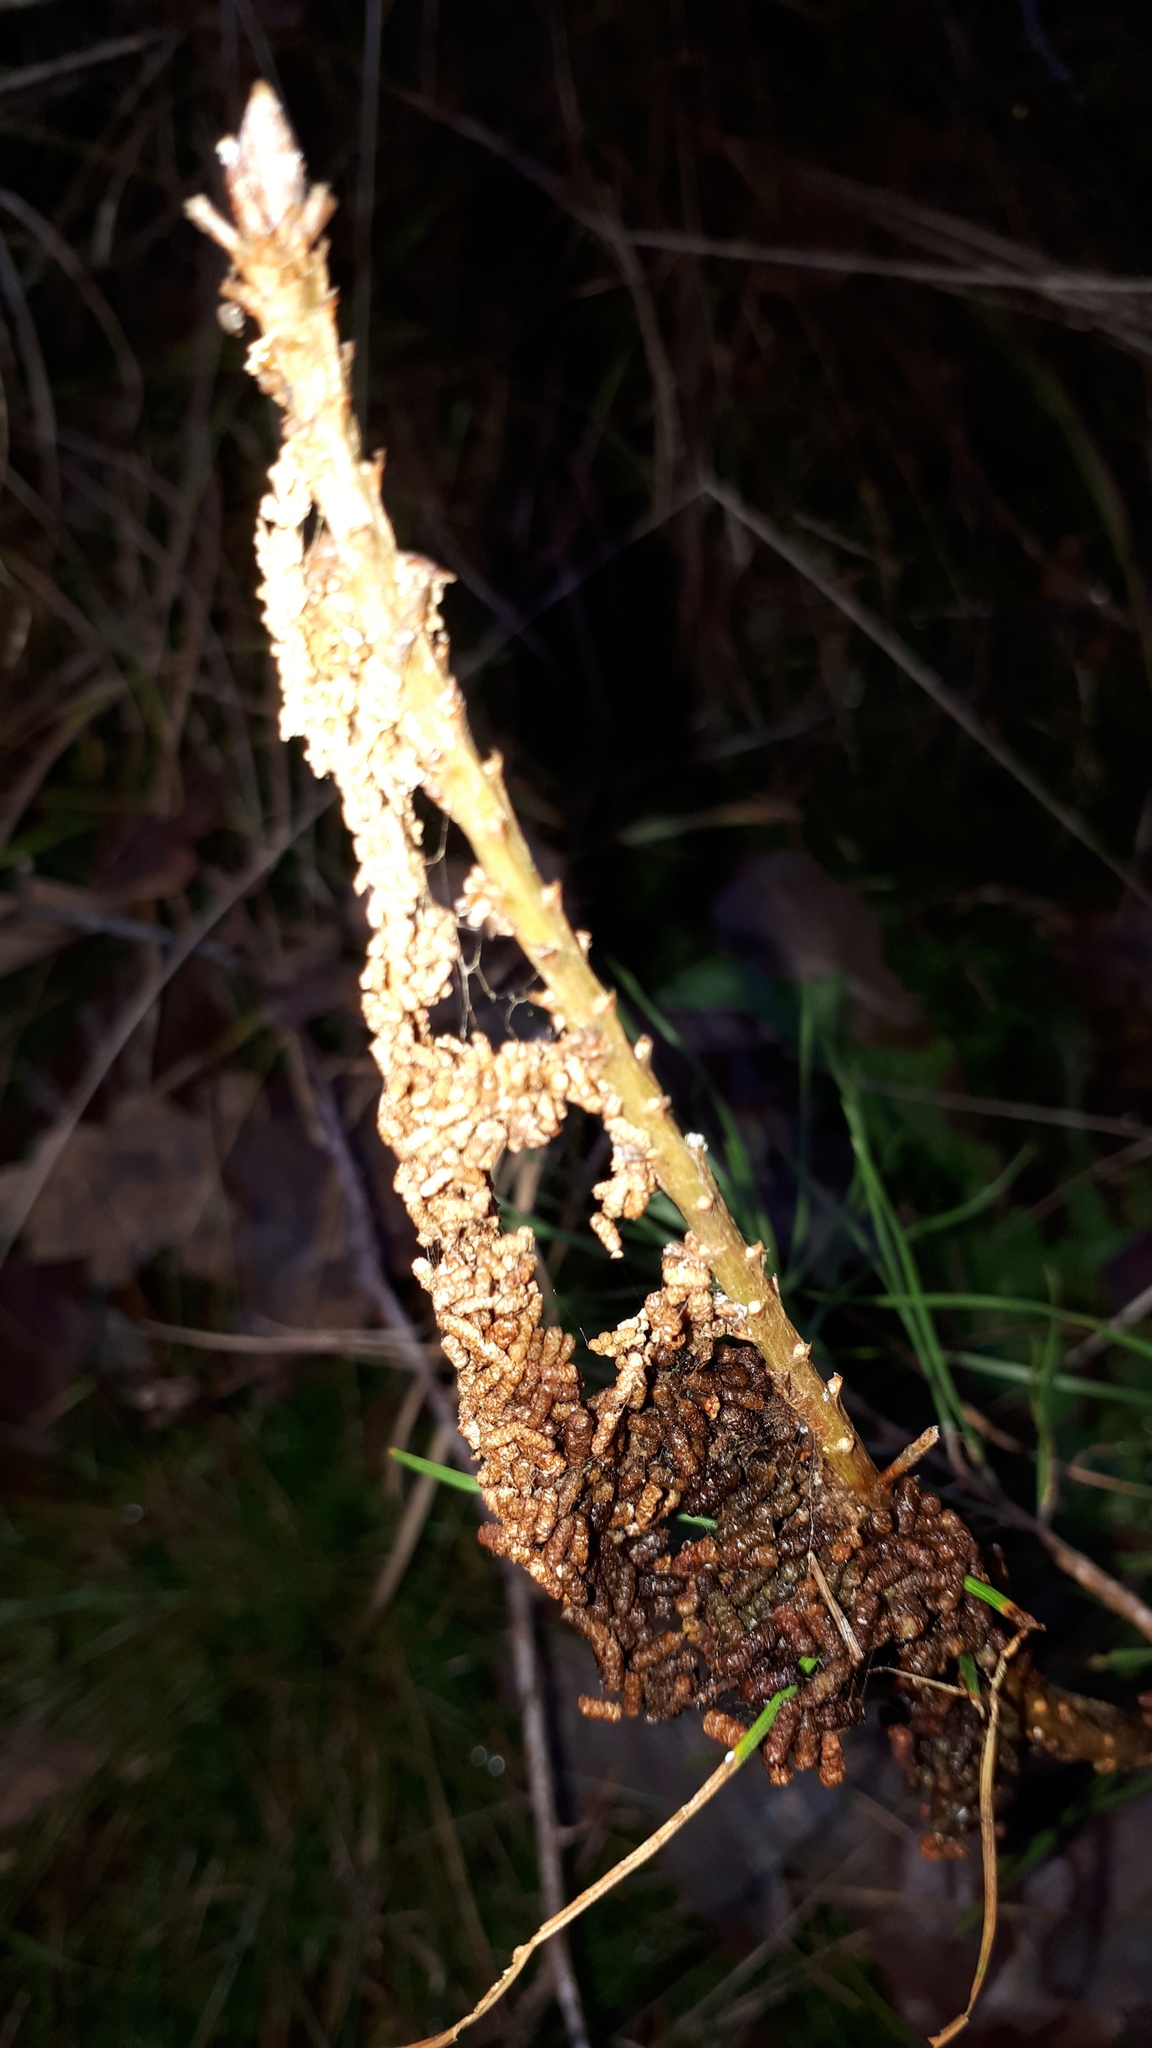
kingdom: Animalia
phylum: Arthropoda
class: Insecta
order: Hymenoptera
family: Pamphiliidae
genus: Acantholyda
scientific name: Acantholyda hieroglyphica
